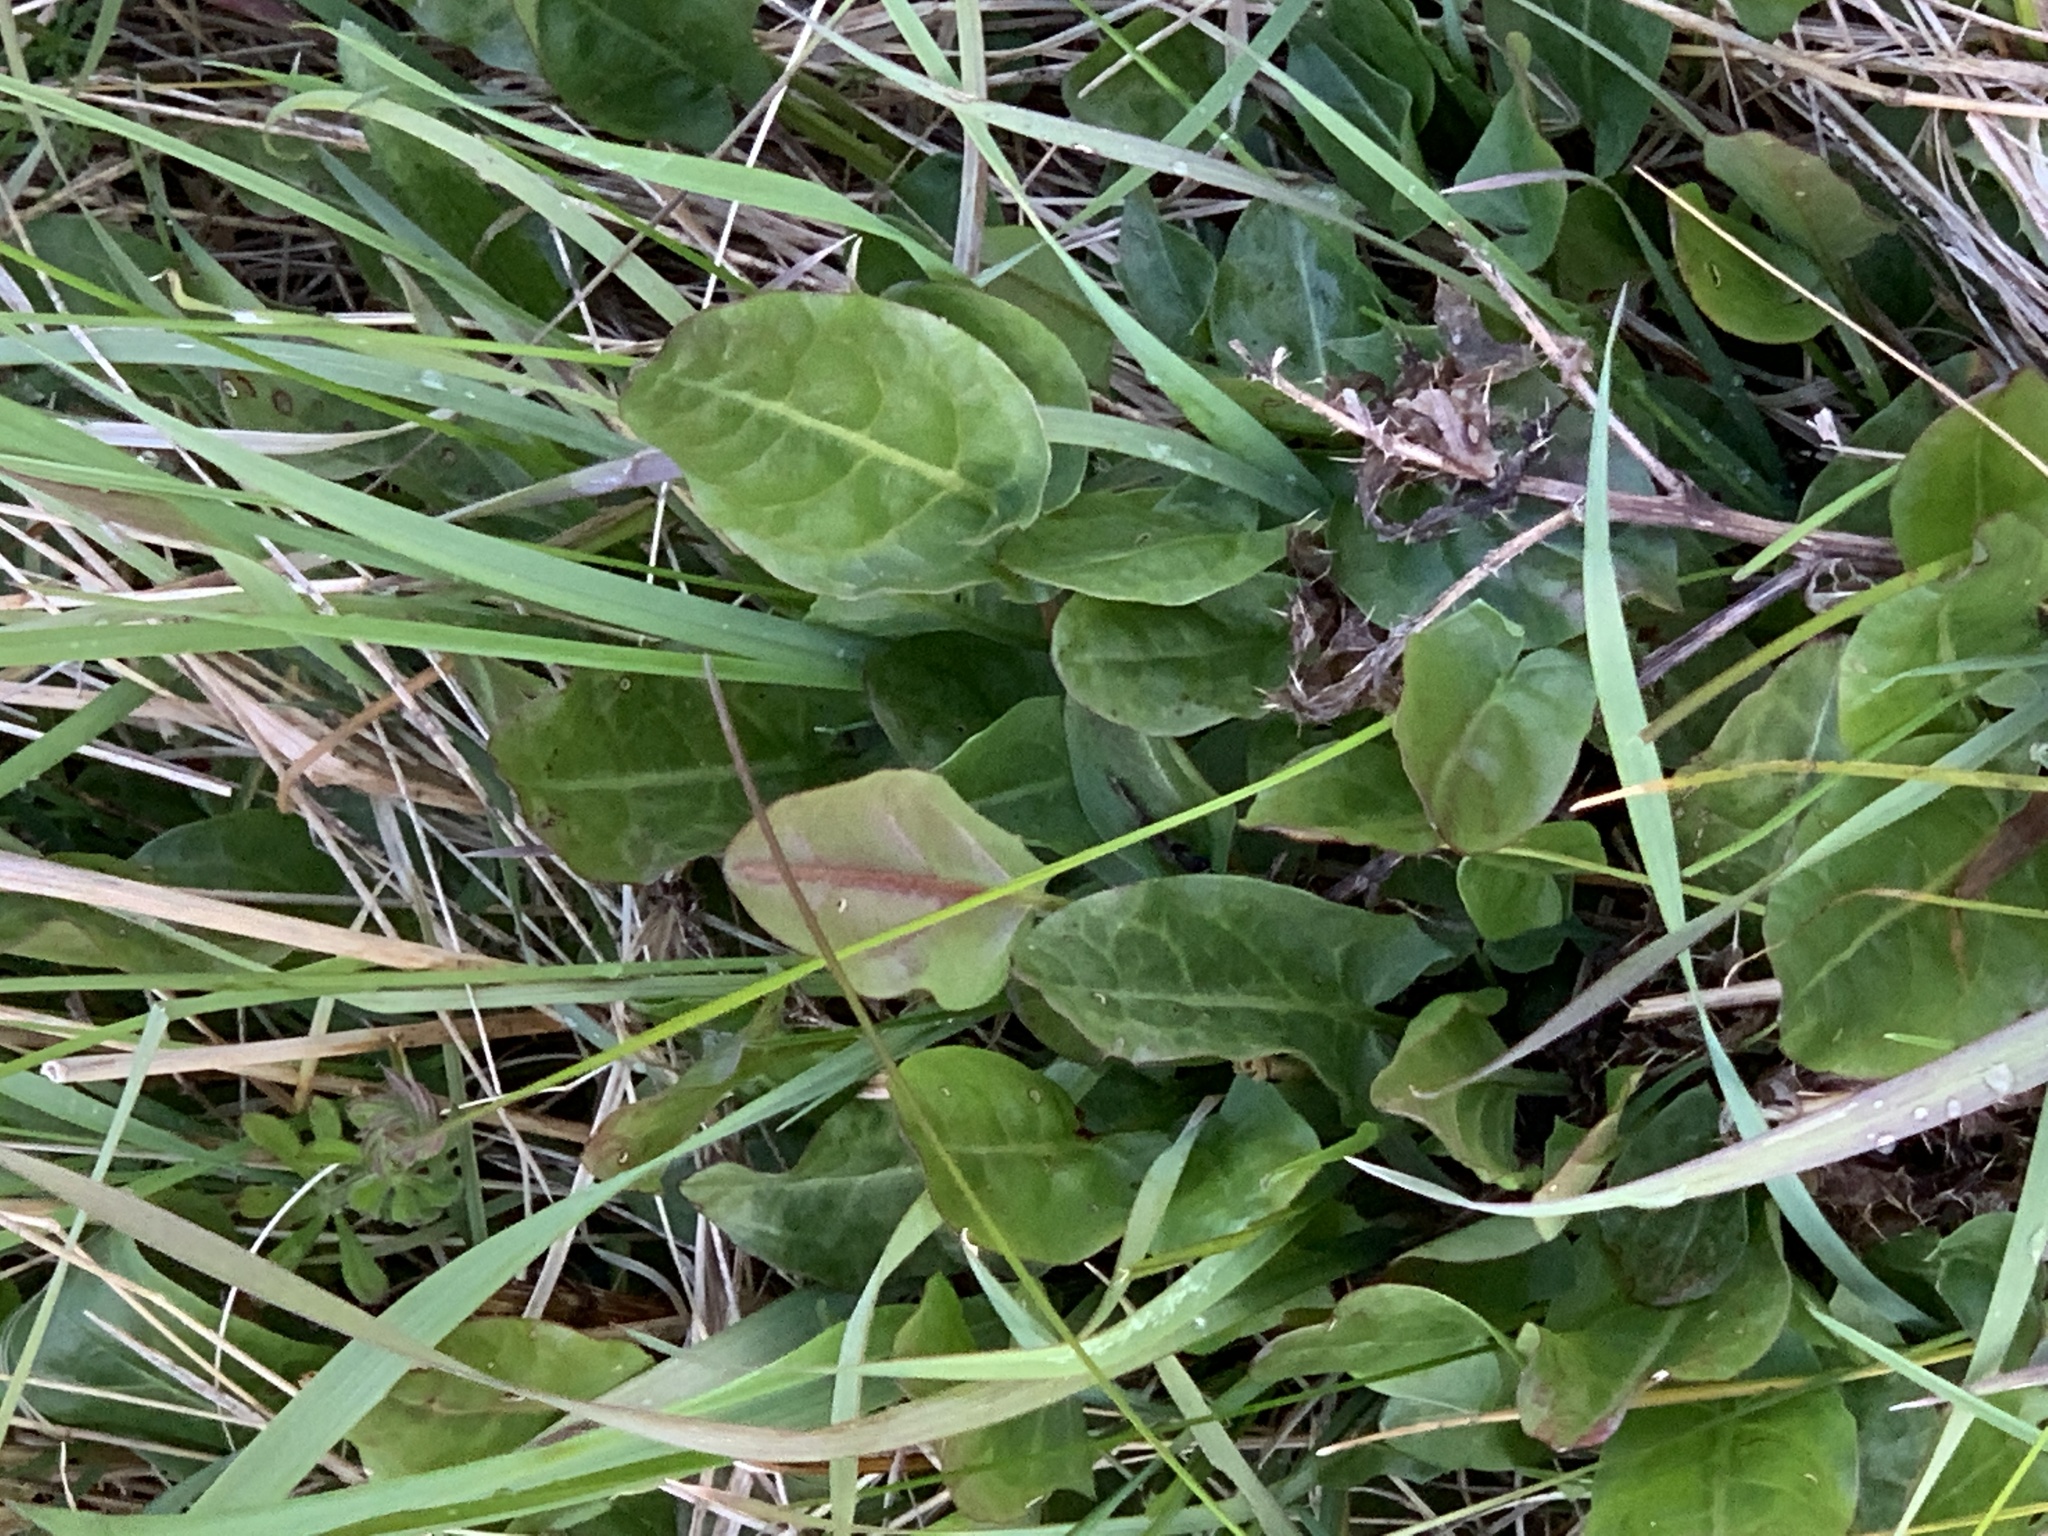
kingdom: Plantae
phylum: Tracheophyta
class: Magnoliopsida
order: Caryophyllales
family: Polygonaceae
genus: Rumex
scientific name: Rumex acetosa
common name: Garden sorrel
